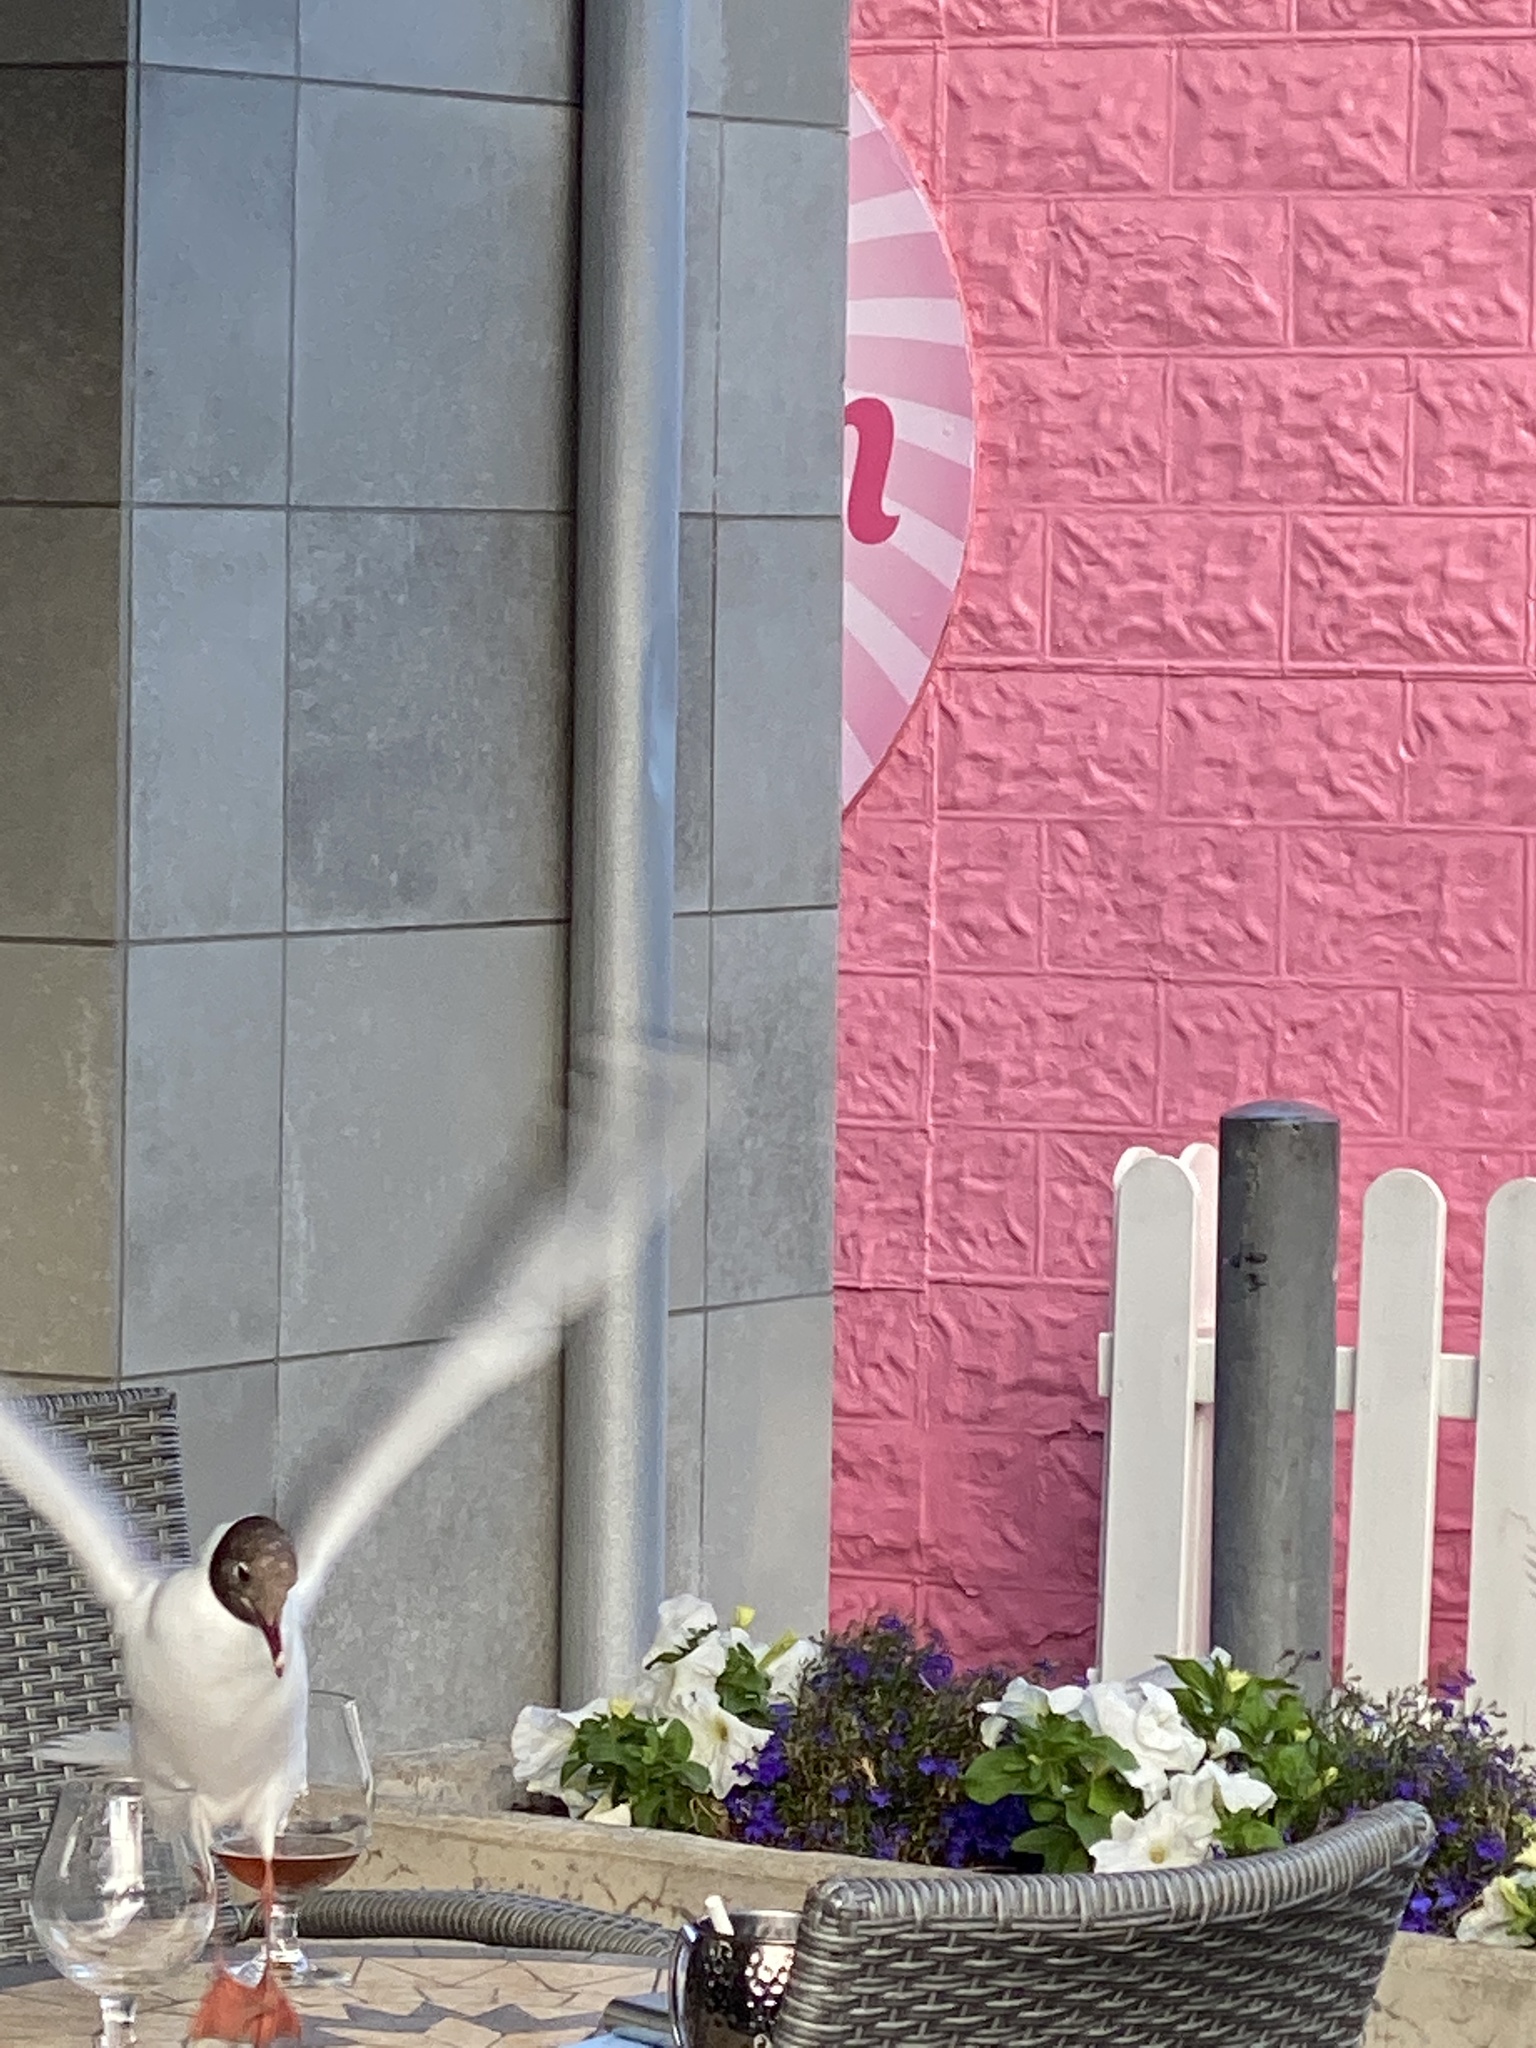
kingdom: Animalia
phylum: Chordata
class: Aves
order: Charadriiformes
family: Laridae
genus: Chroicocephalus
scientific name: Chroicocephalus ridibundus
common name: Black-headed gull
